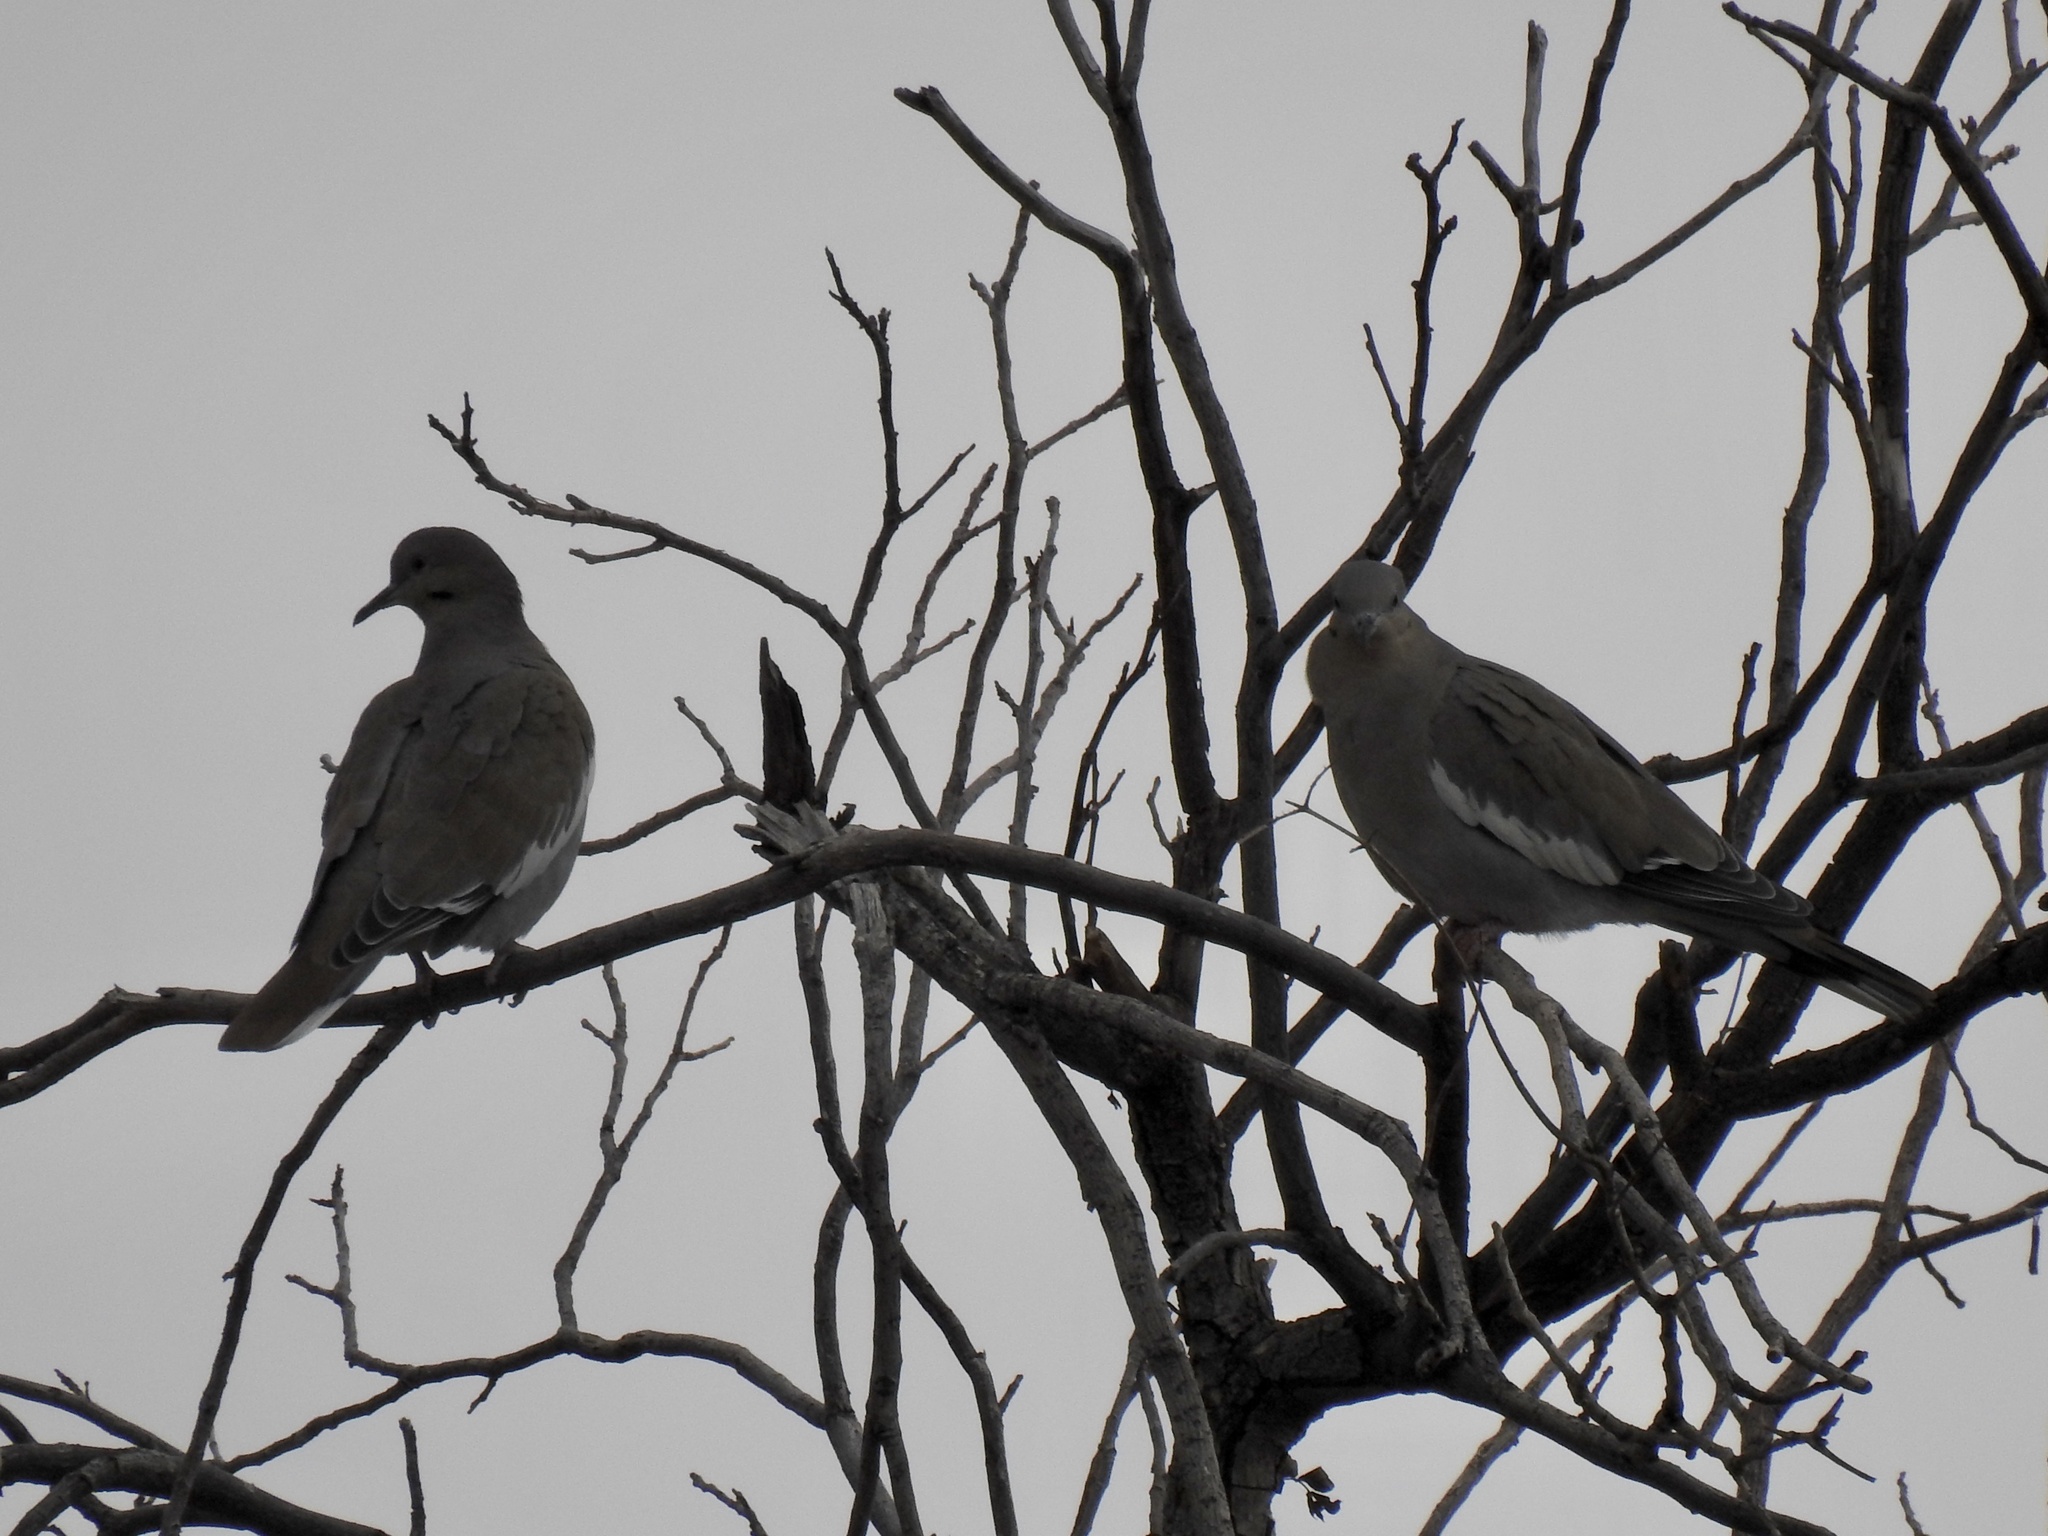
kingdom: Animalia
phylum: Chordata
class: Aves
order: Columbiformes
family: Columbidae
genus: Zenaida
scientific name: Zenaida asiatica
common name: White-winged dove
